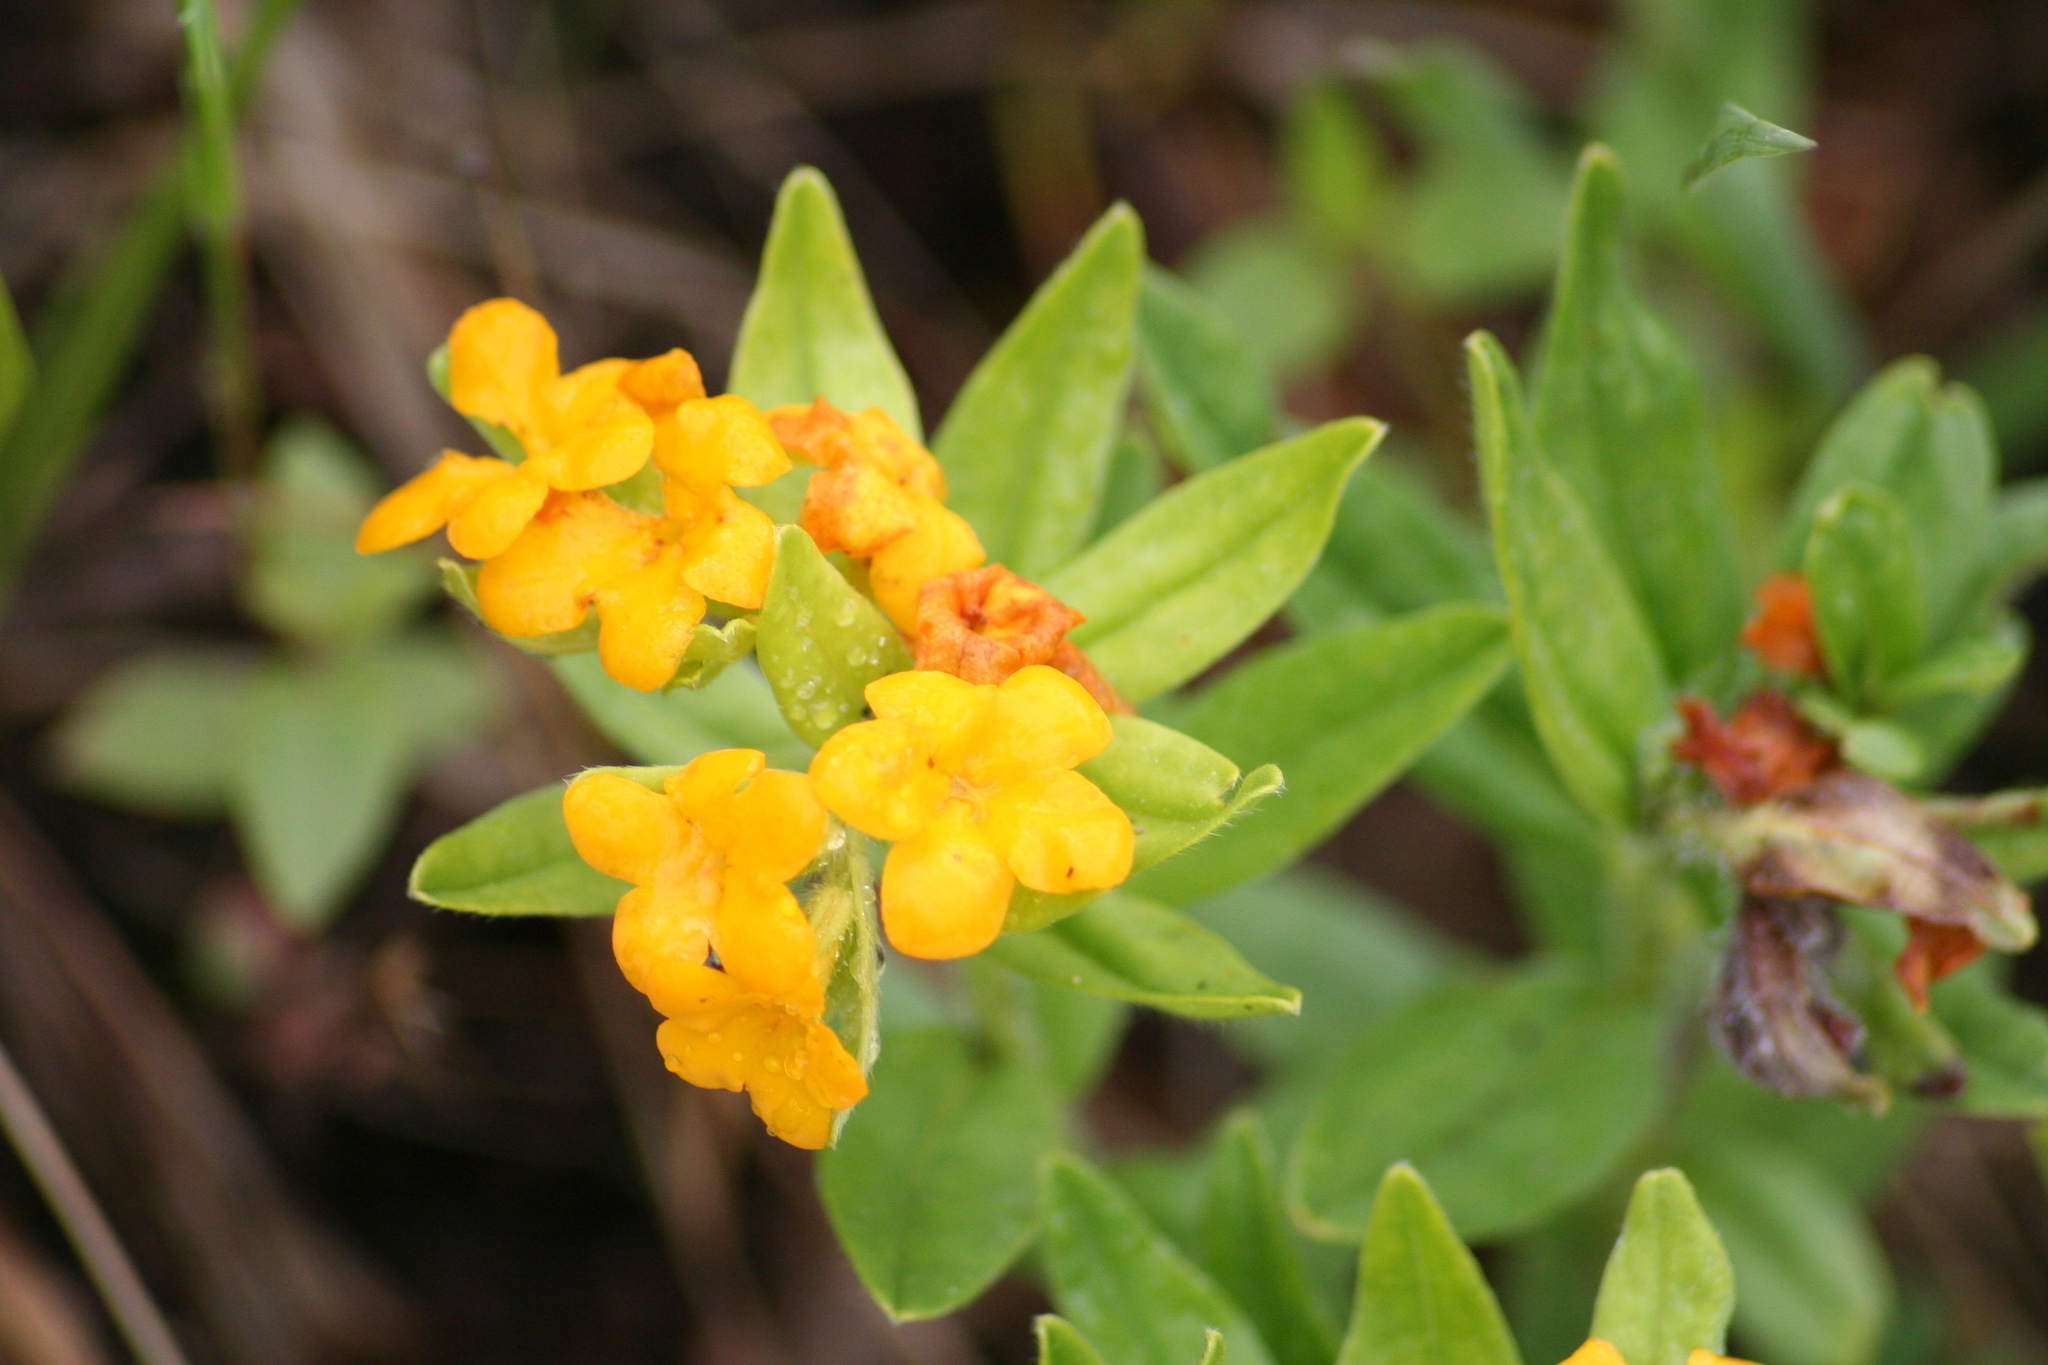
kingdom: Plantae
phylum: Tracheophyta
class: Magnoliopsida
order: Boraginales
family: Boraginaceae
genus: Lithospermum
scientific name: Lithospermum canescens
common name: Hoary puccoon
